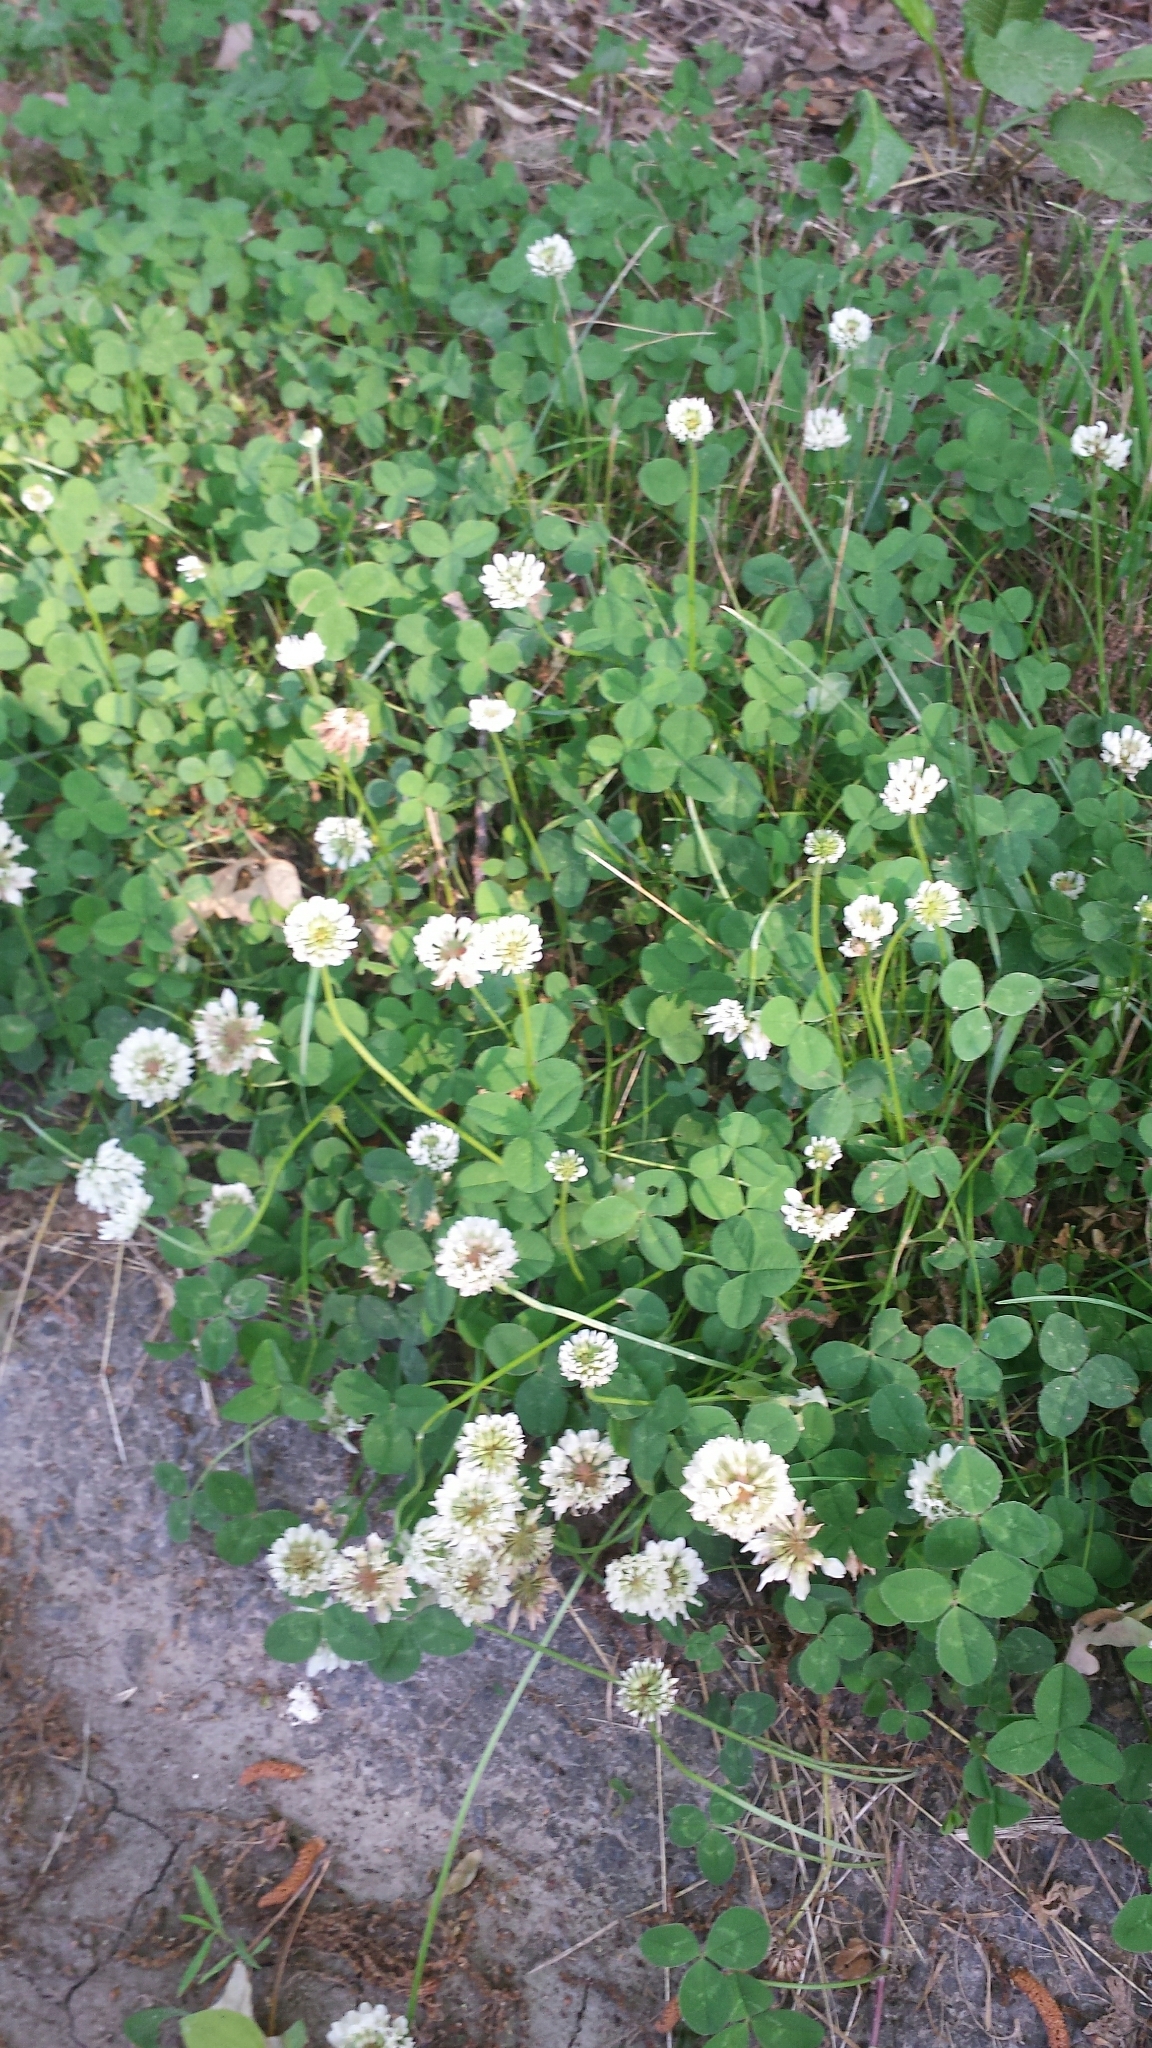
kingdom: Plantae
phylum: Tracheophyta
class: Magnoliopsida
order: Fabales
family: Fabaceae
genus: Trifolium
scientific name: Trifolium repens
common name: White clover
